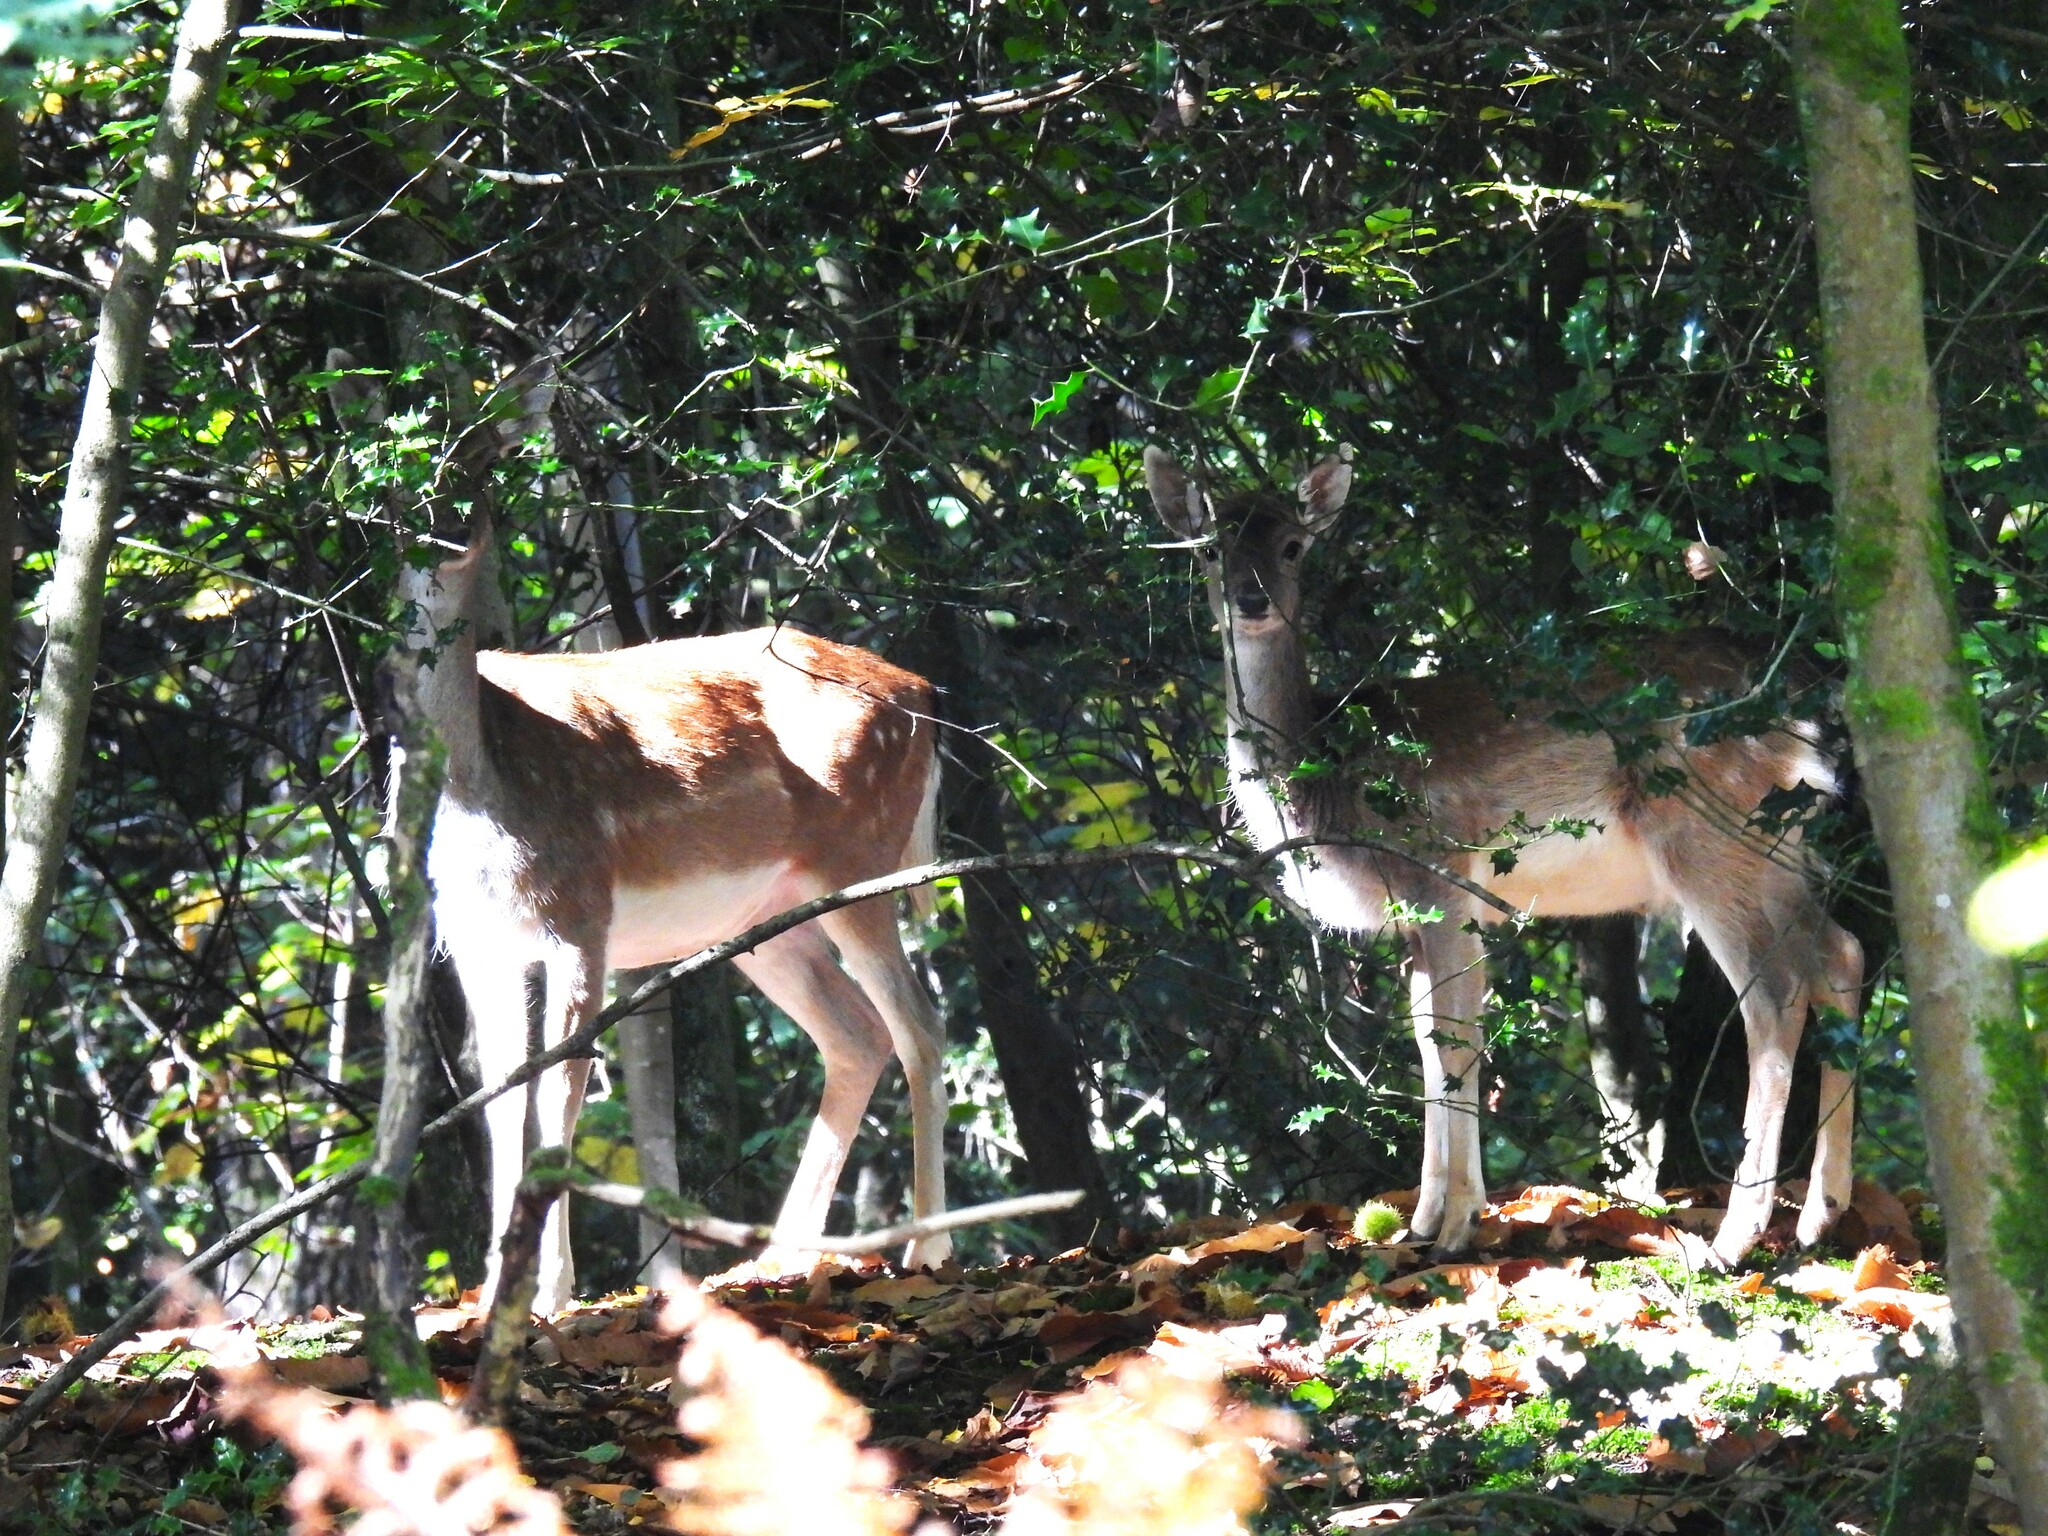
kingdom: Animalia
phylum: Chordata
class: Mammalia
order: Artiodactyla
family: Cervidae
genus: Dama
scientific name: Dama dama
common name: Fallow deer
